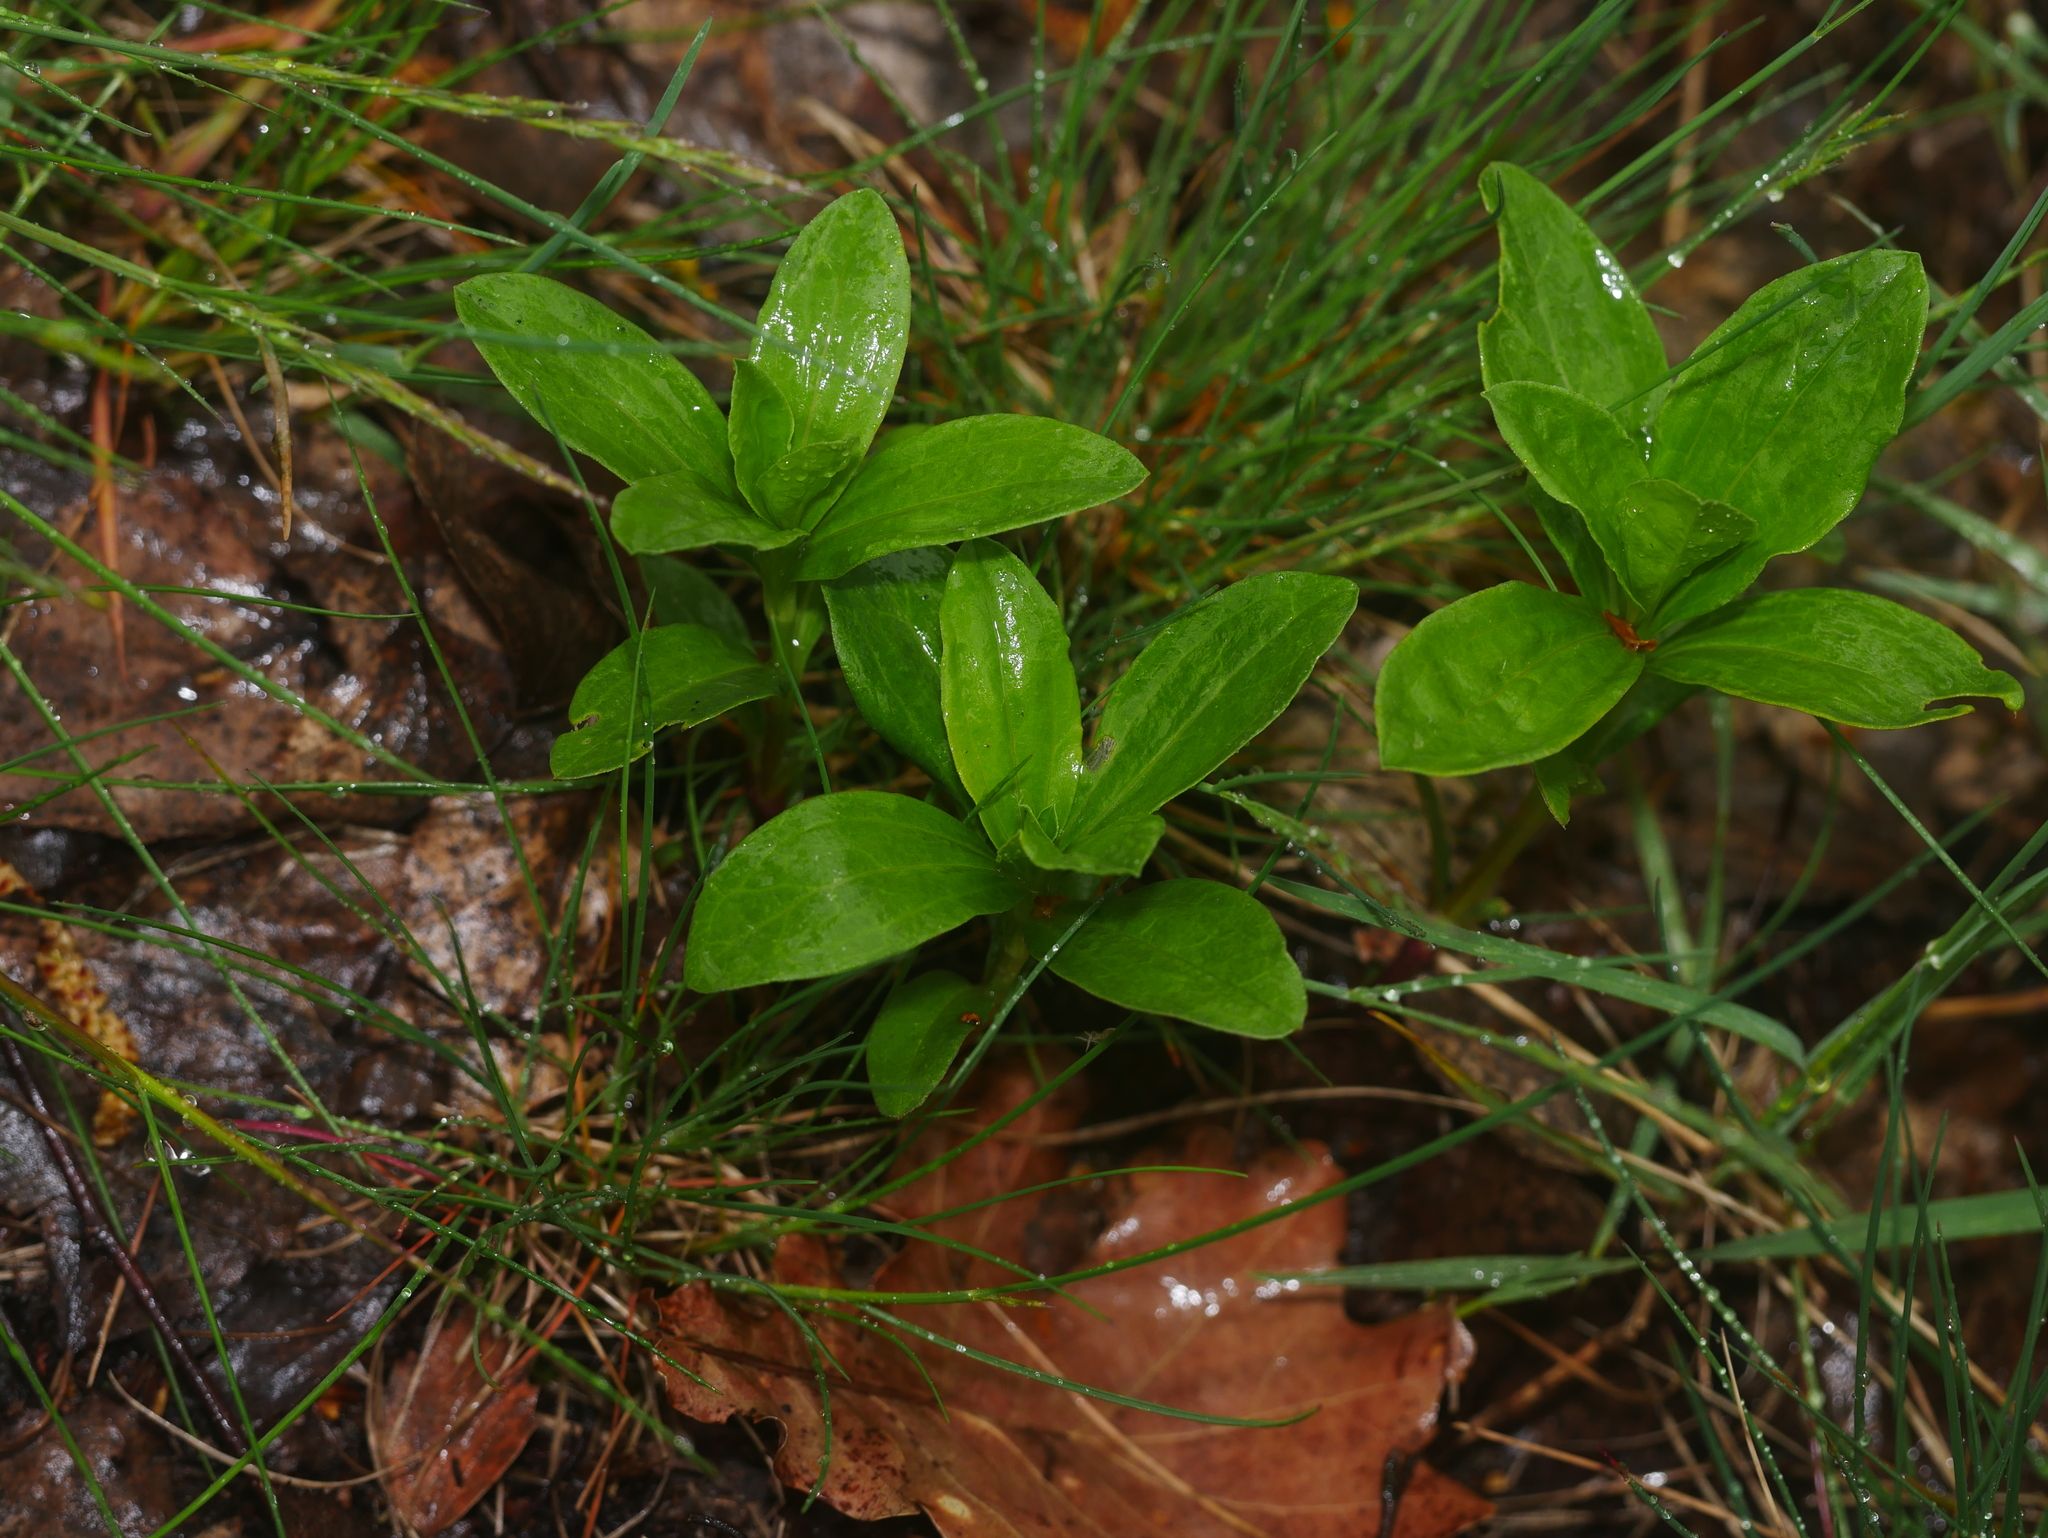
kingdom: Plantae
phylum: Tracheophyta
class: Magnoliopsida
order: Caryophyllales
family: Caryophyllaceae
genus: Saponaria
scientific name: Saponaria officinalis
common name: Soapwort
